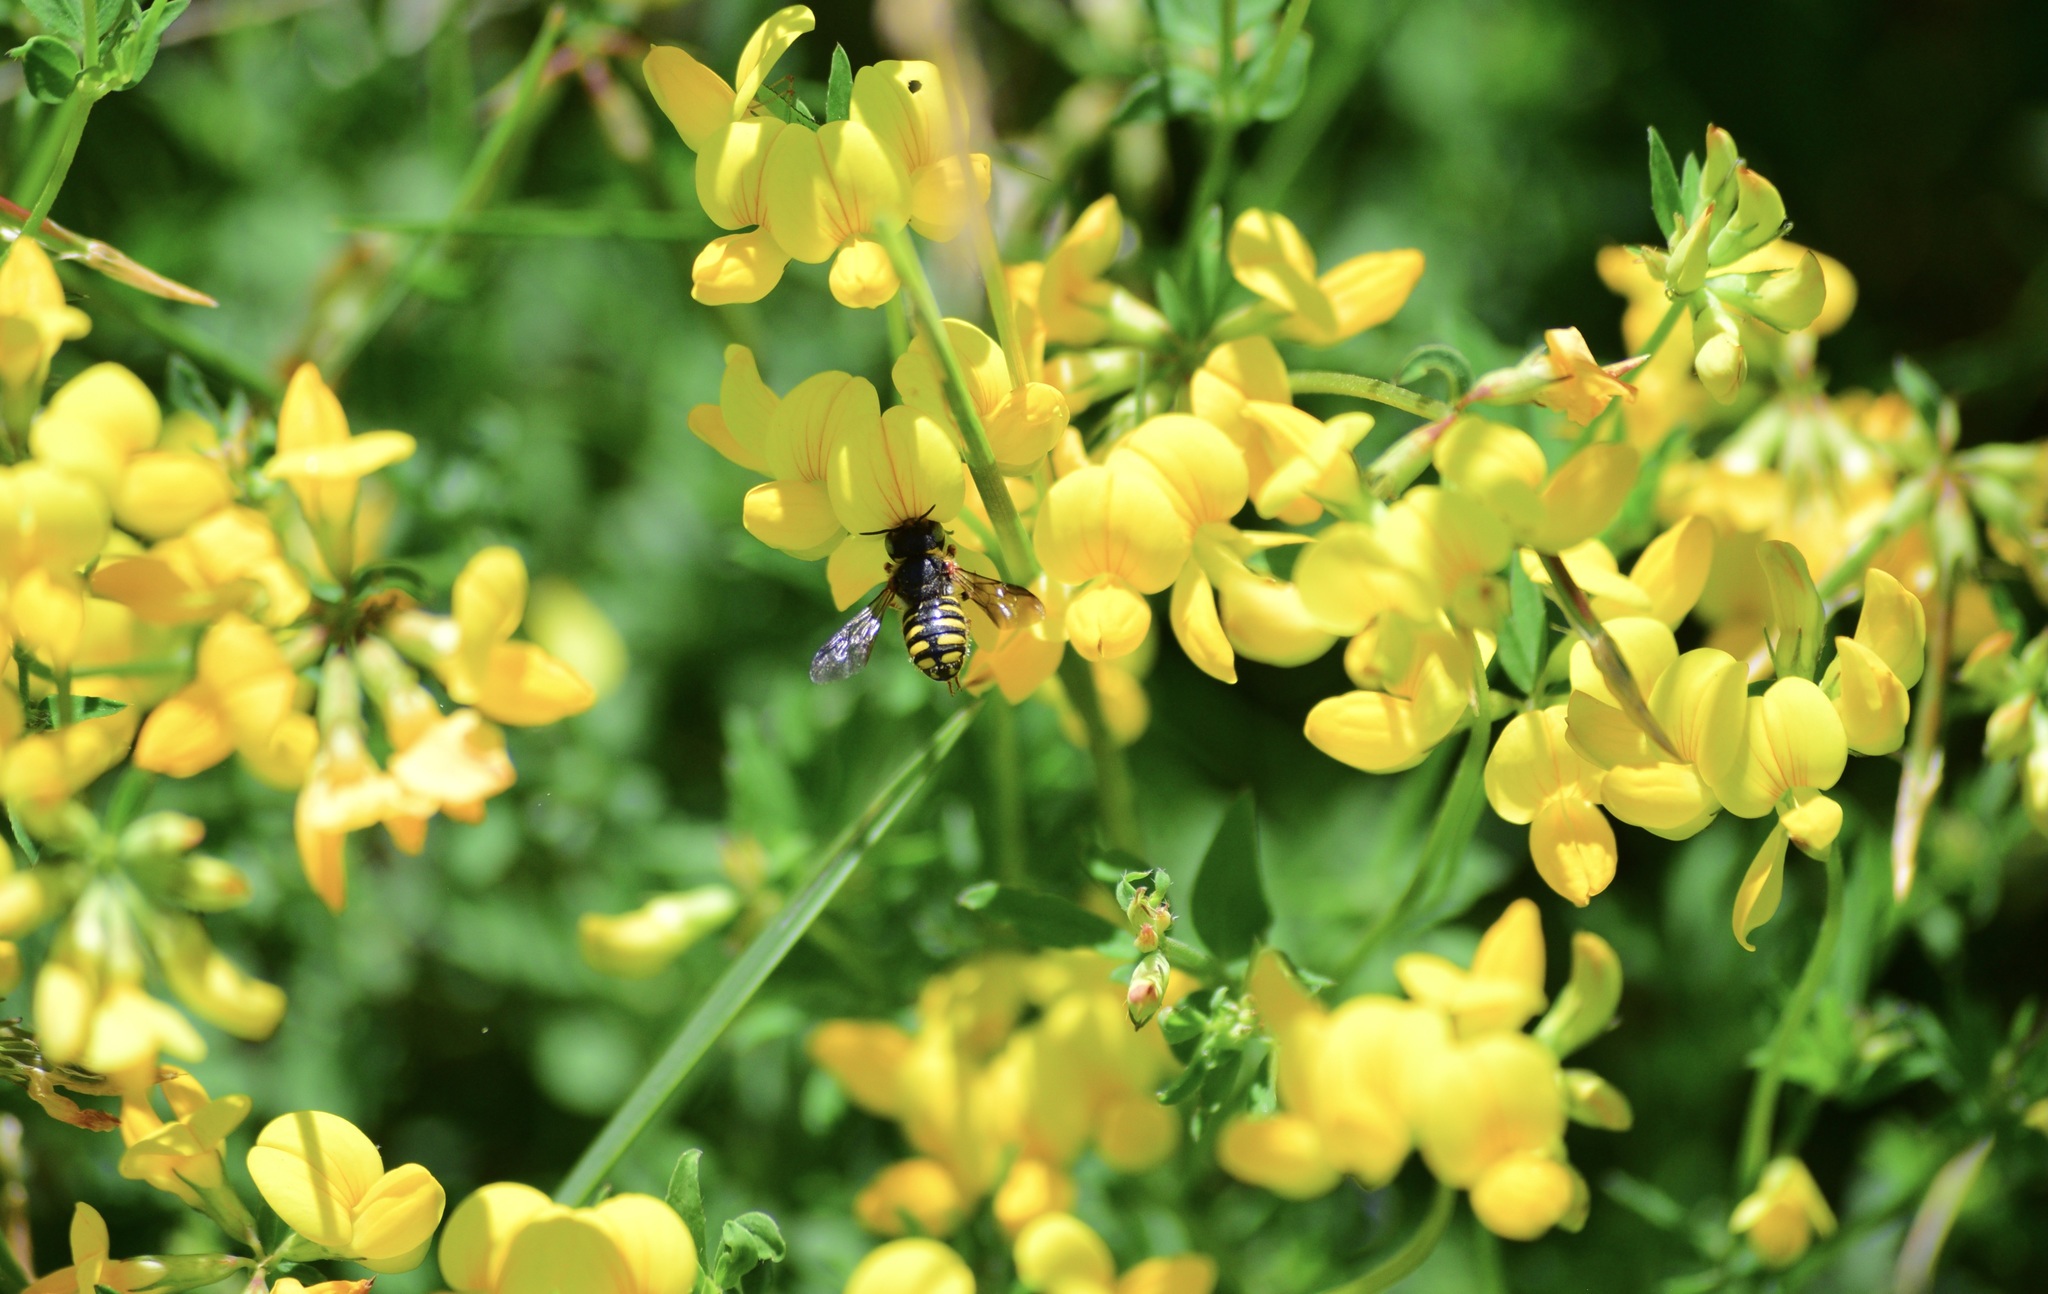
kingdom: Animalia
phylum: Arthropoda
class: Insecta
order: Hymenoptera
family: Megachilidae
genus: Anthidium
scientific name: Anthidium oblongatum
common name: Oblong wool carder bee
